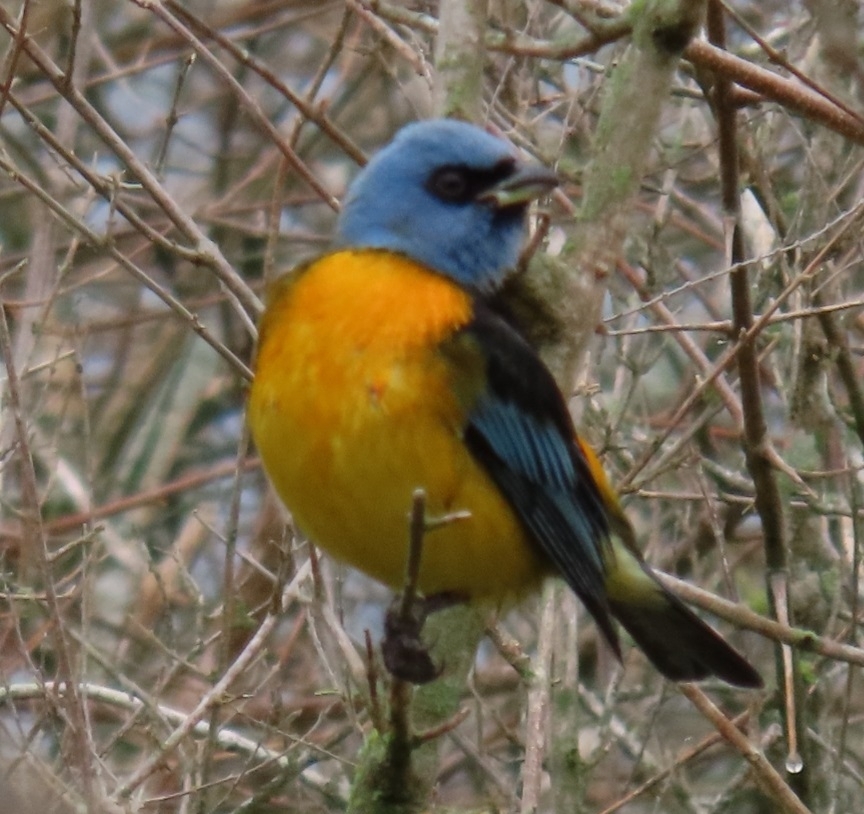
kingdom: Animalia
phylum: Chordata
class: Aves
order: Passeriformes
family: Thraupidae
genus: Rauenia
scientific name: Rauenia bonariensis
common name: Blue-and-yellow tanager
